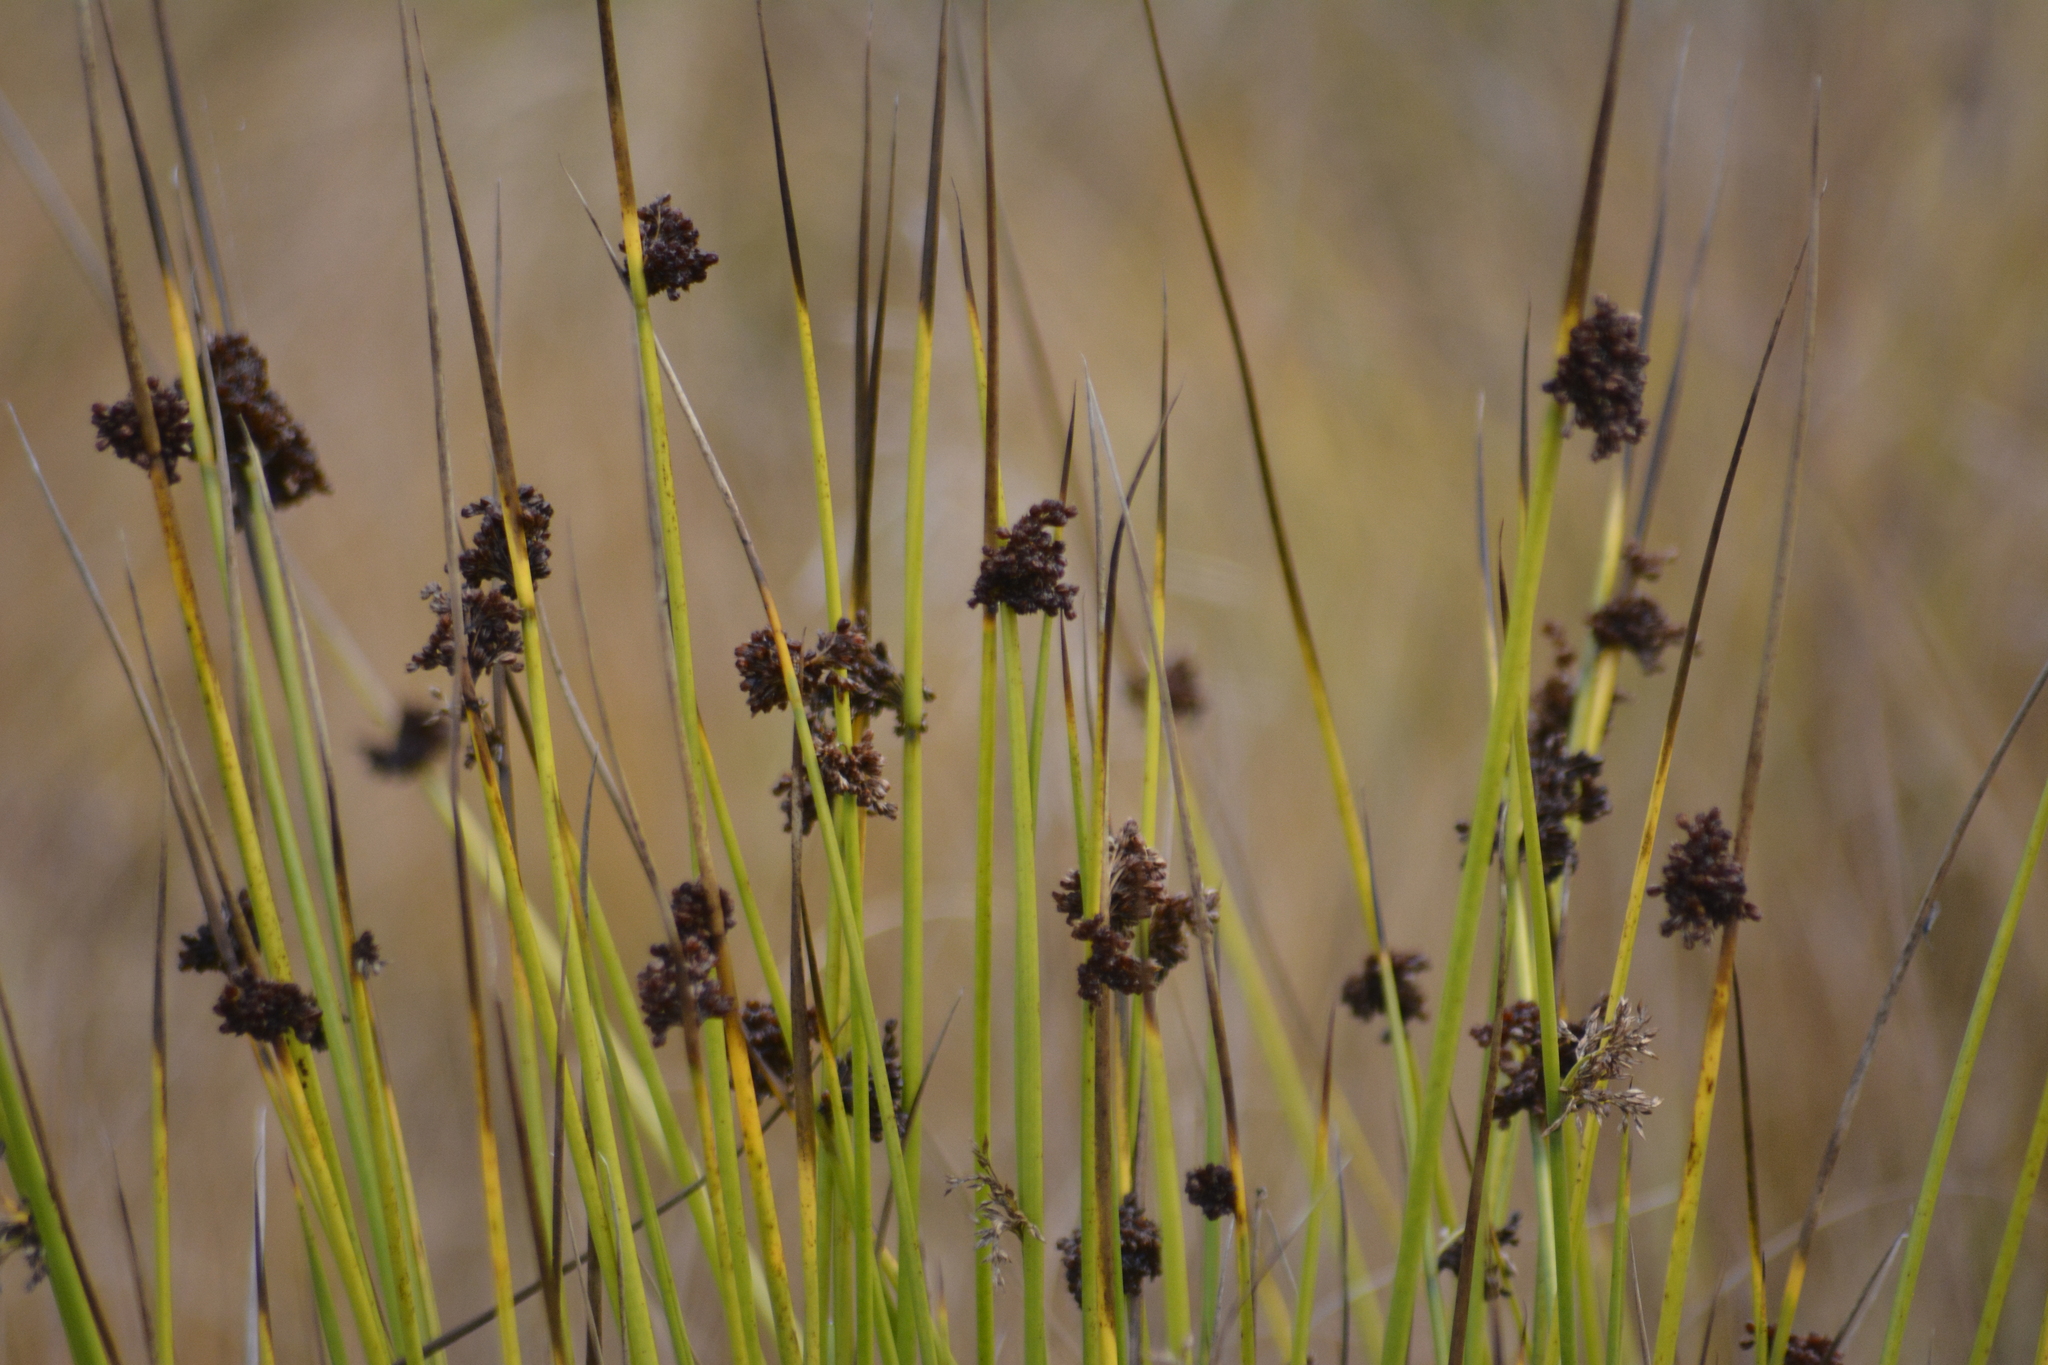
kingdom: Plantae
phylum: Tracheophyta
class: Liliopsida
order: Poales
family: Juncaceae
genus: Juncus
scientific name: Juncus effusus
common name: Soft rush
